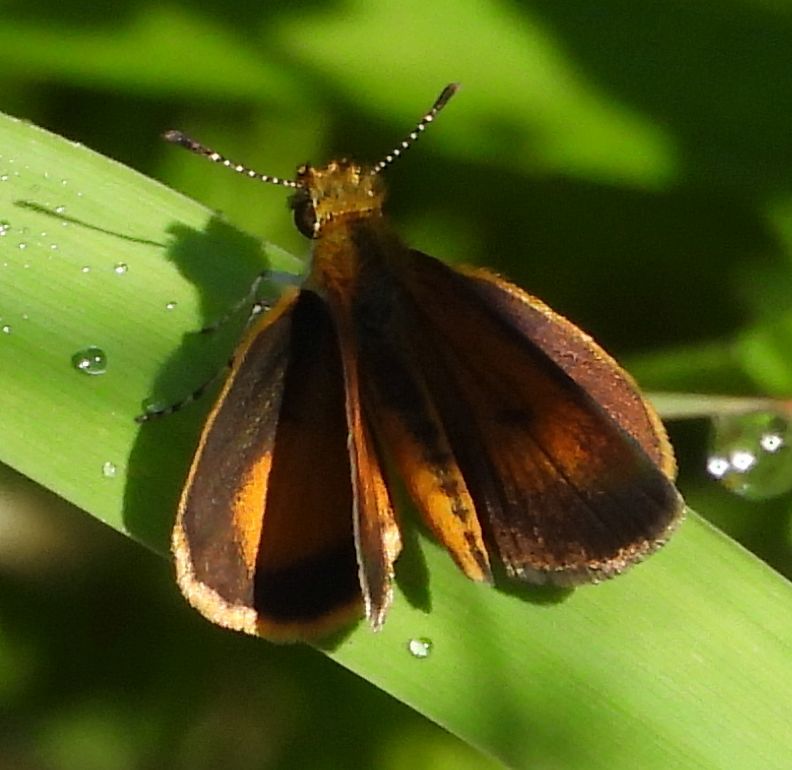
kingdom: Animalia
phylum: Arthropoda
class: Insecta
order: Lepidoptera
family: Hesperiidae
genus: Ancyloxypha
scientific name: Ancyloxypha numitor
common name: Least skipper
